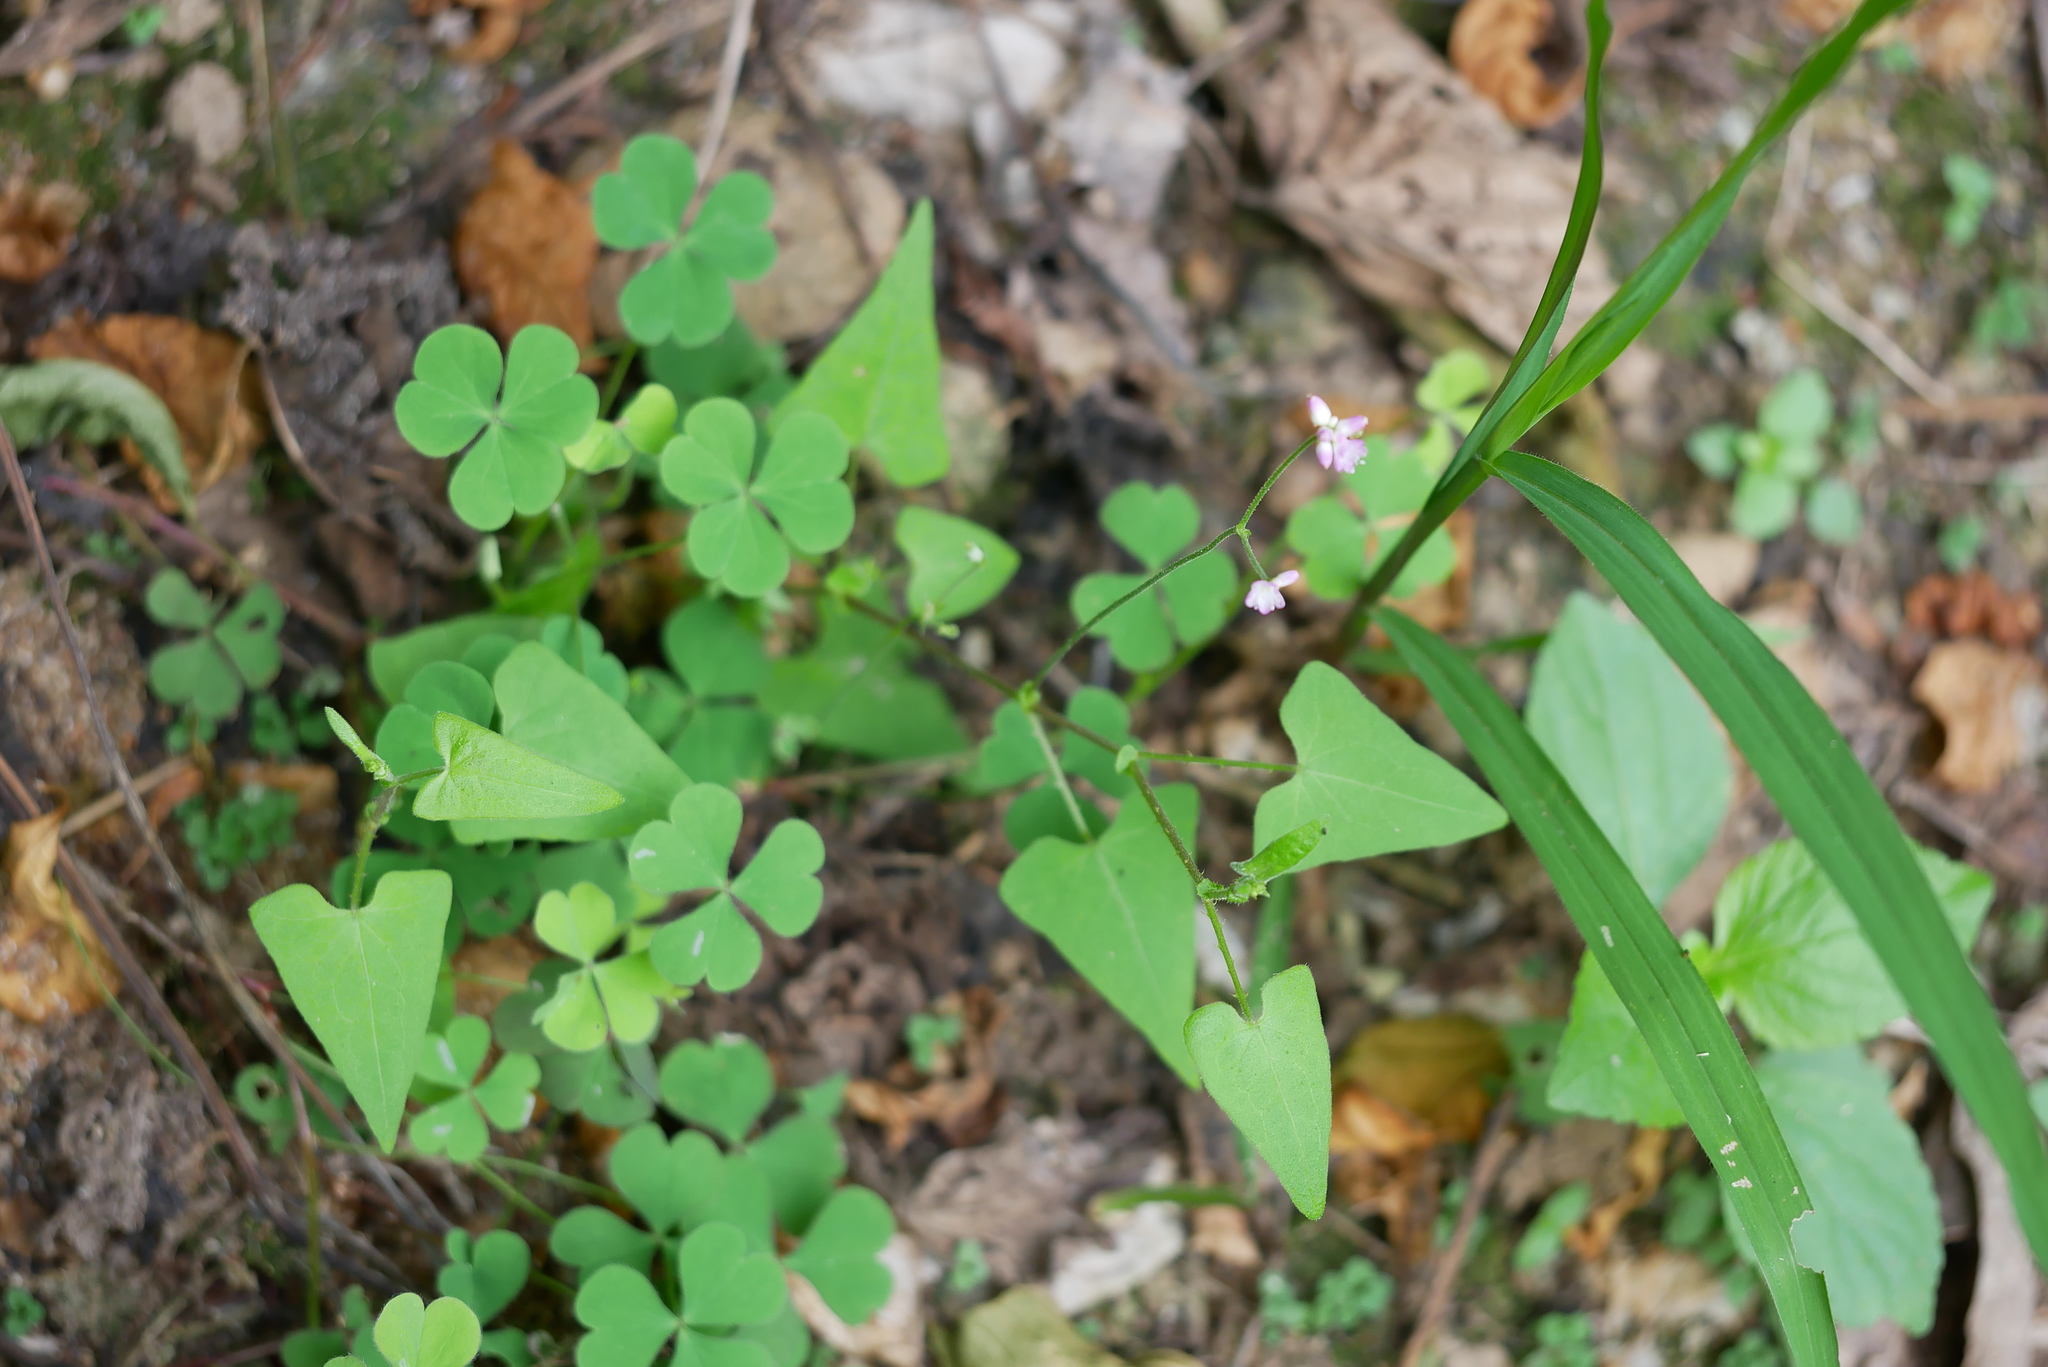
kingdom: Plantae
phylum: Tracheophyta
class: Magnoliopsida
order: Caryophyllales
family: Polygonaceae
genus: Persicaria
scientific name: Persicaria senticosa
